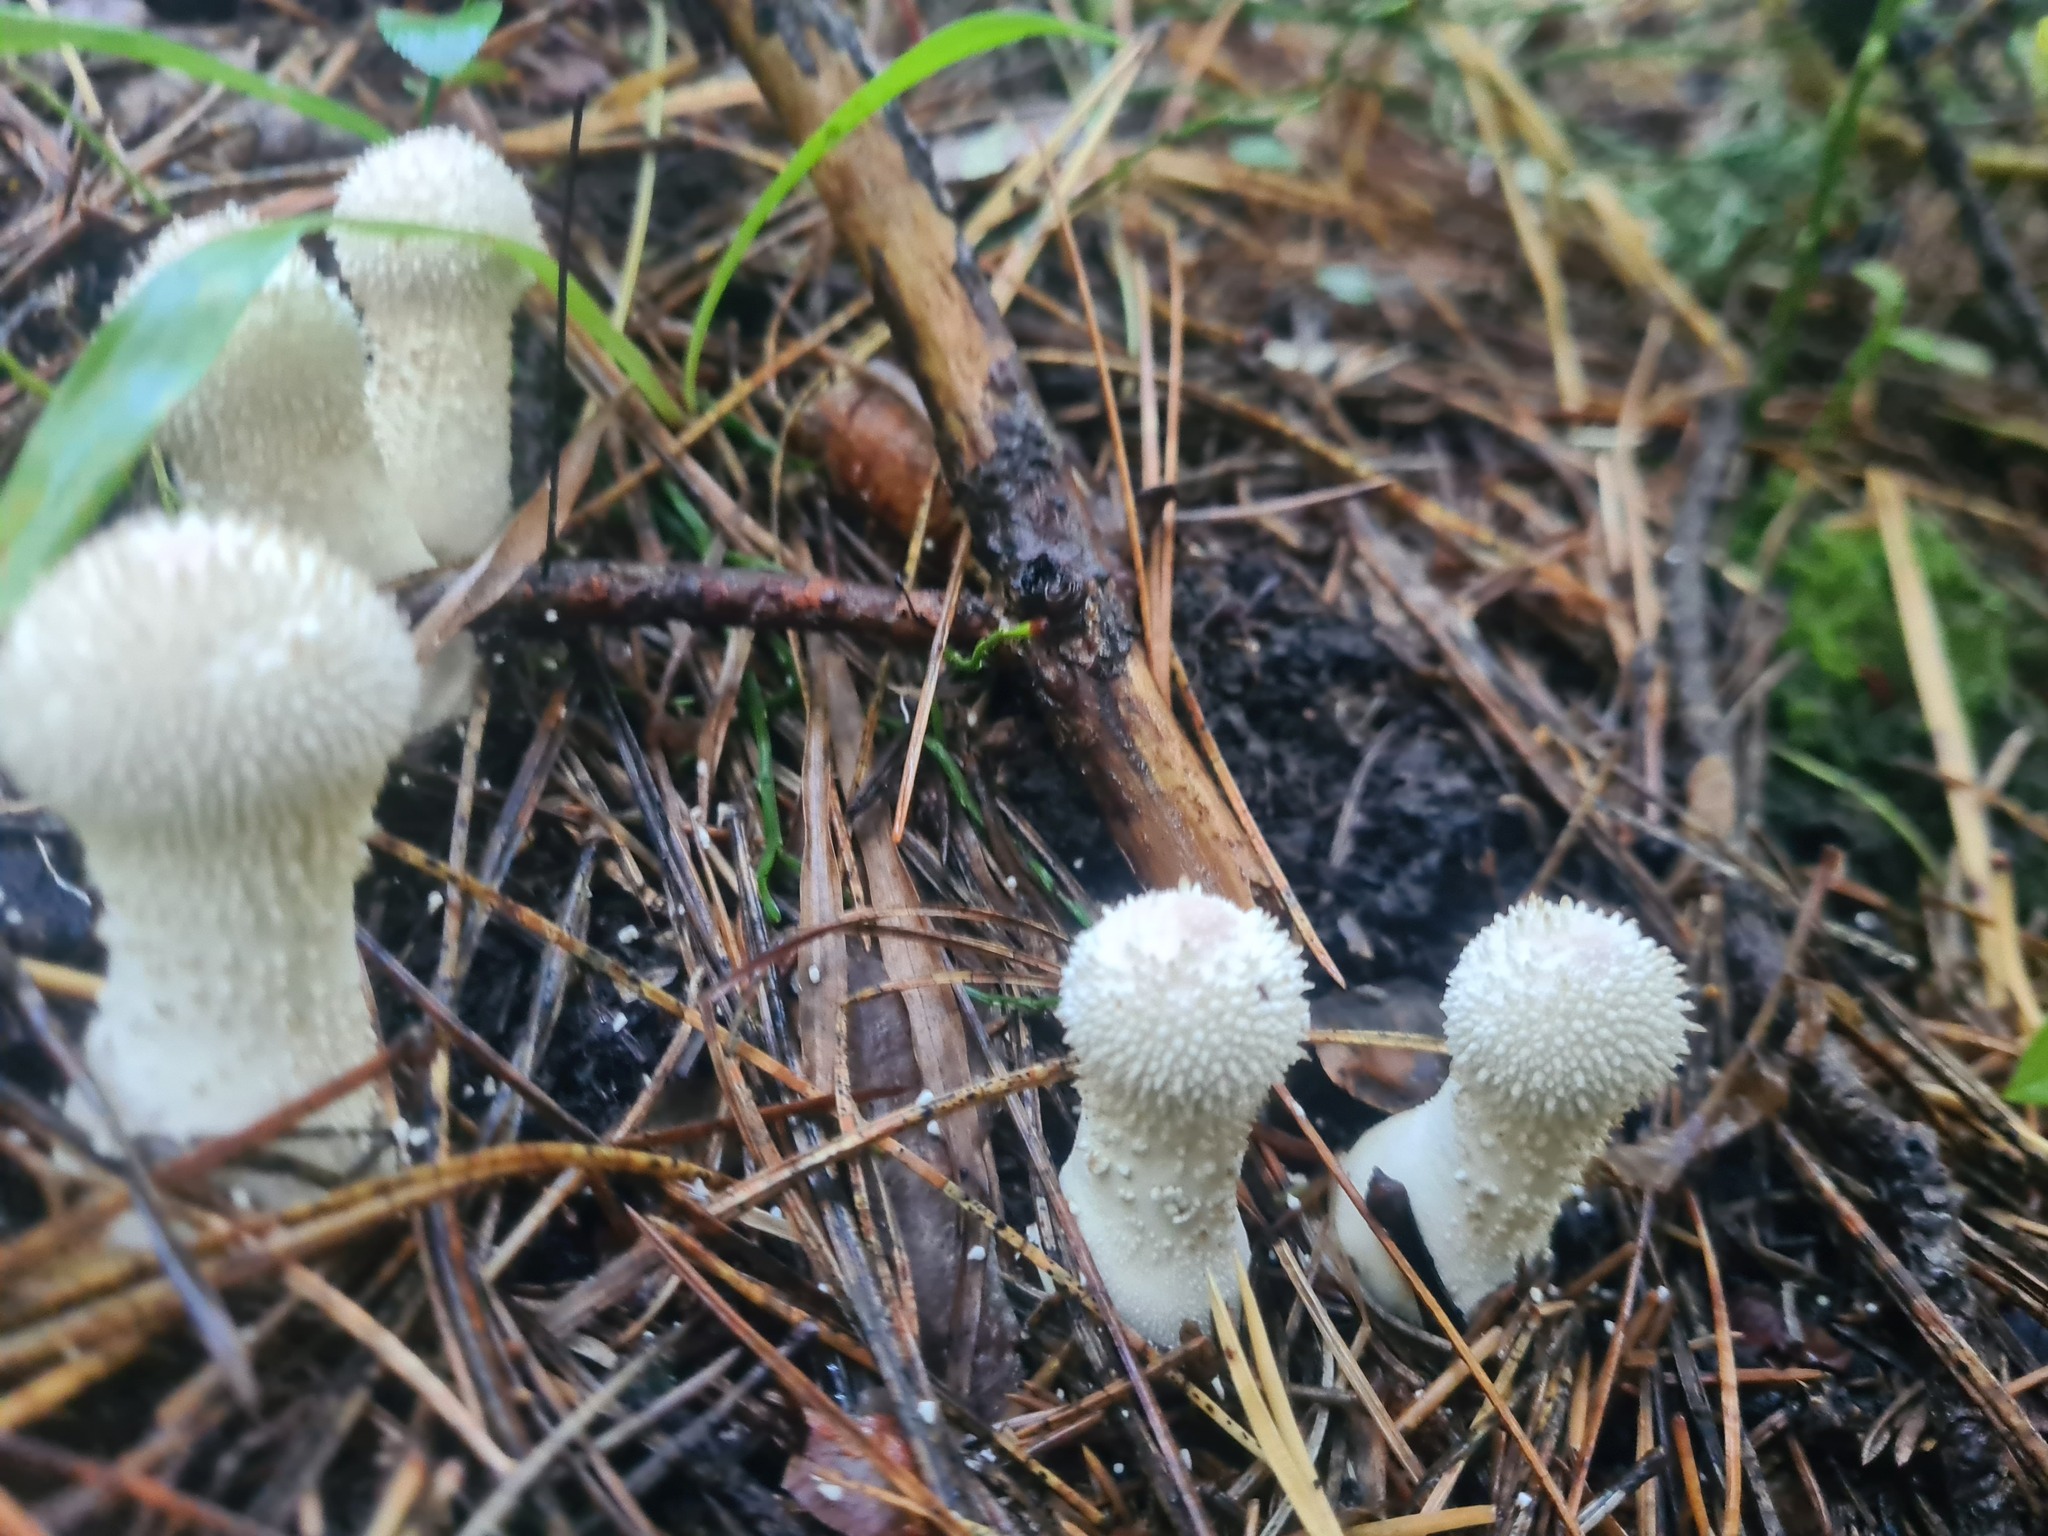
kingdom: Fungi
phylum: Basidiomycota
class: Agaricomycetes
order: Agaricales
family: Lycoperdaceae
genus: Lycoperdon
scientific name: Lycoperdon perlatum
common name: Common puffball
